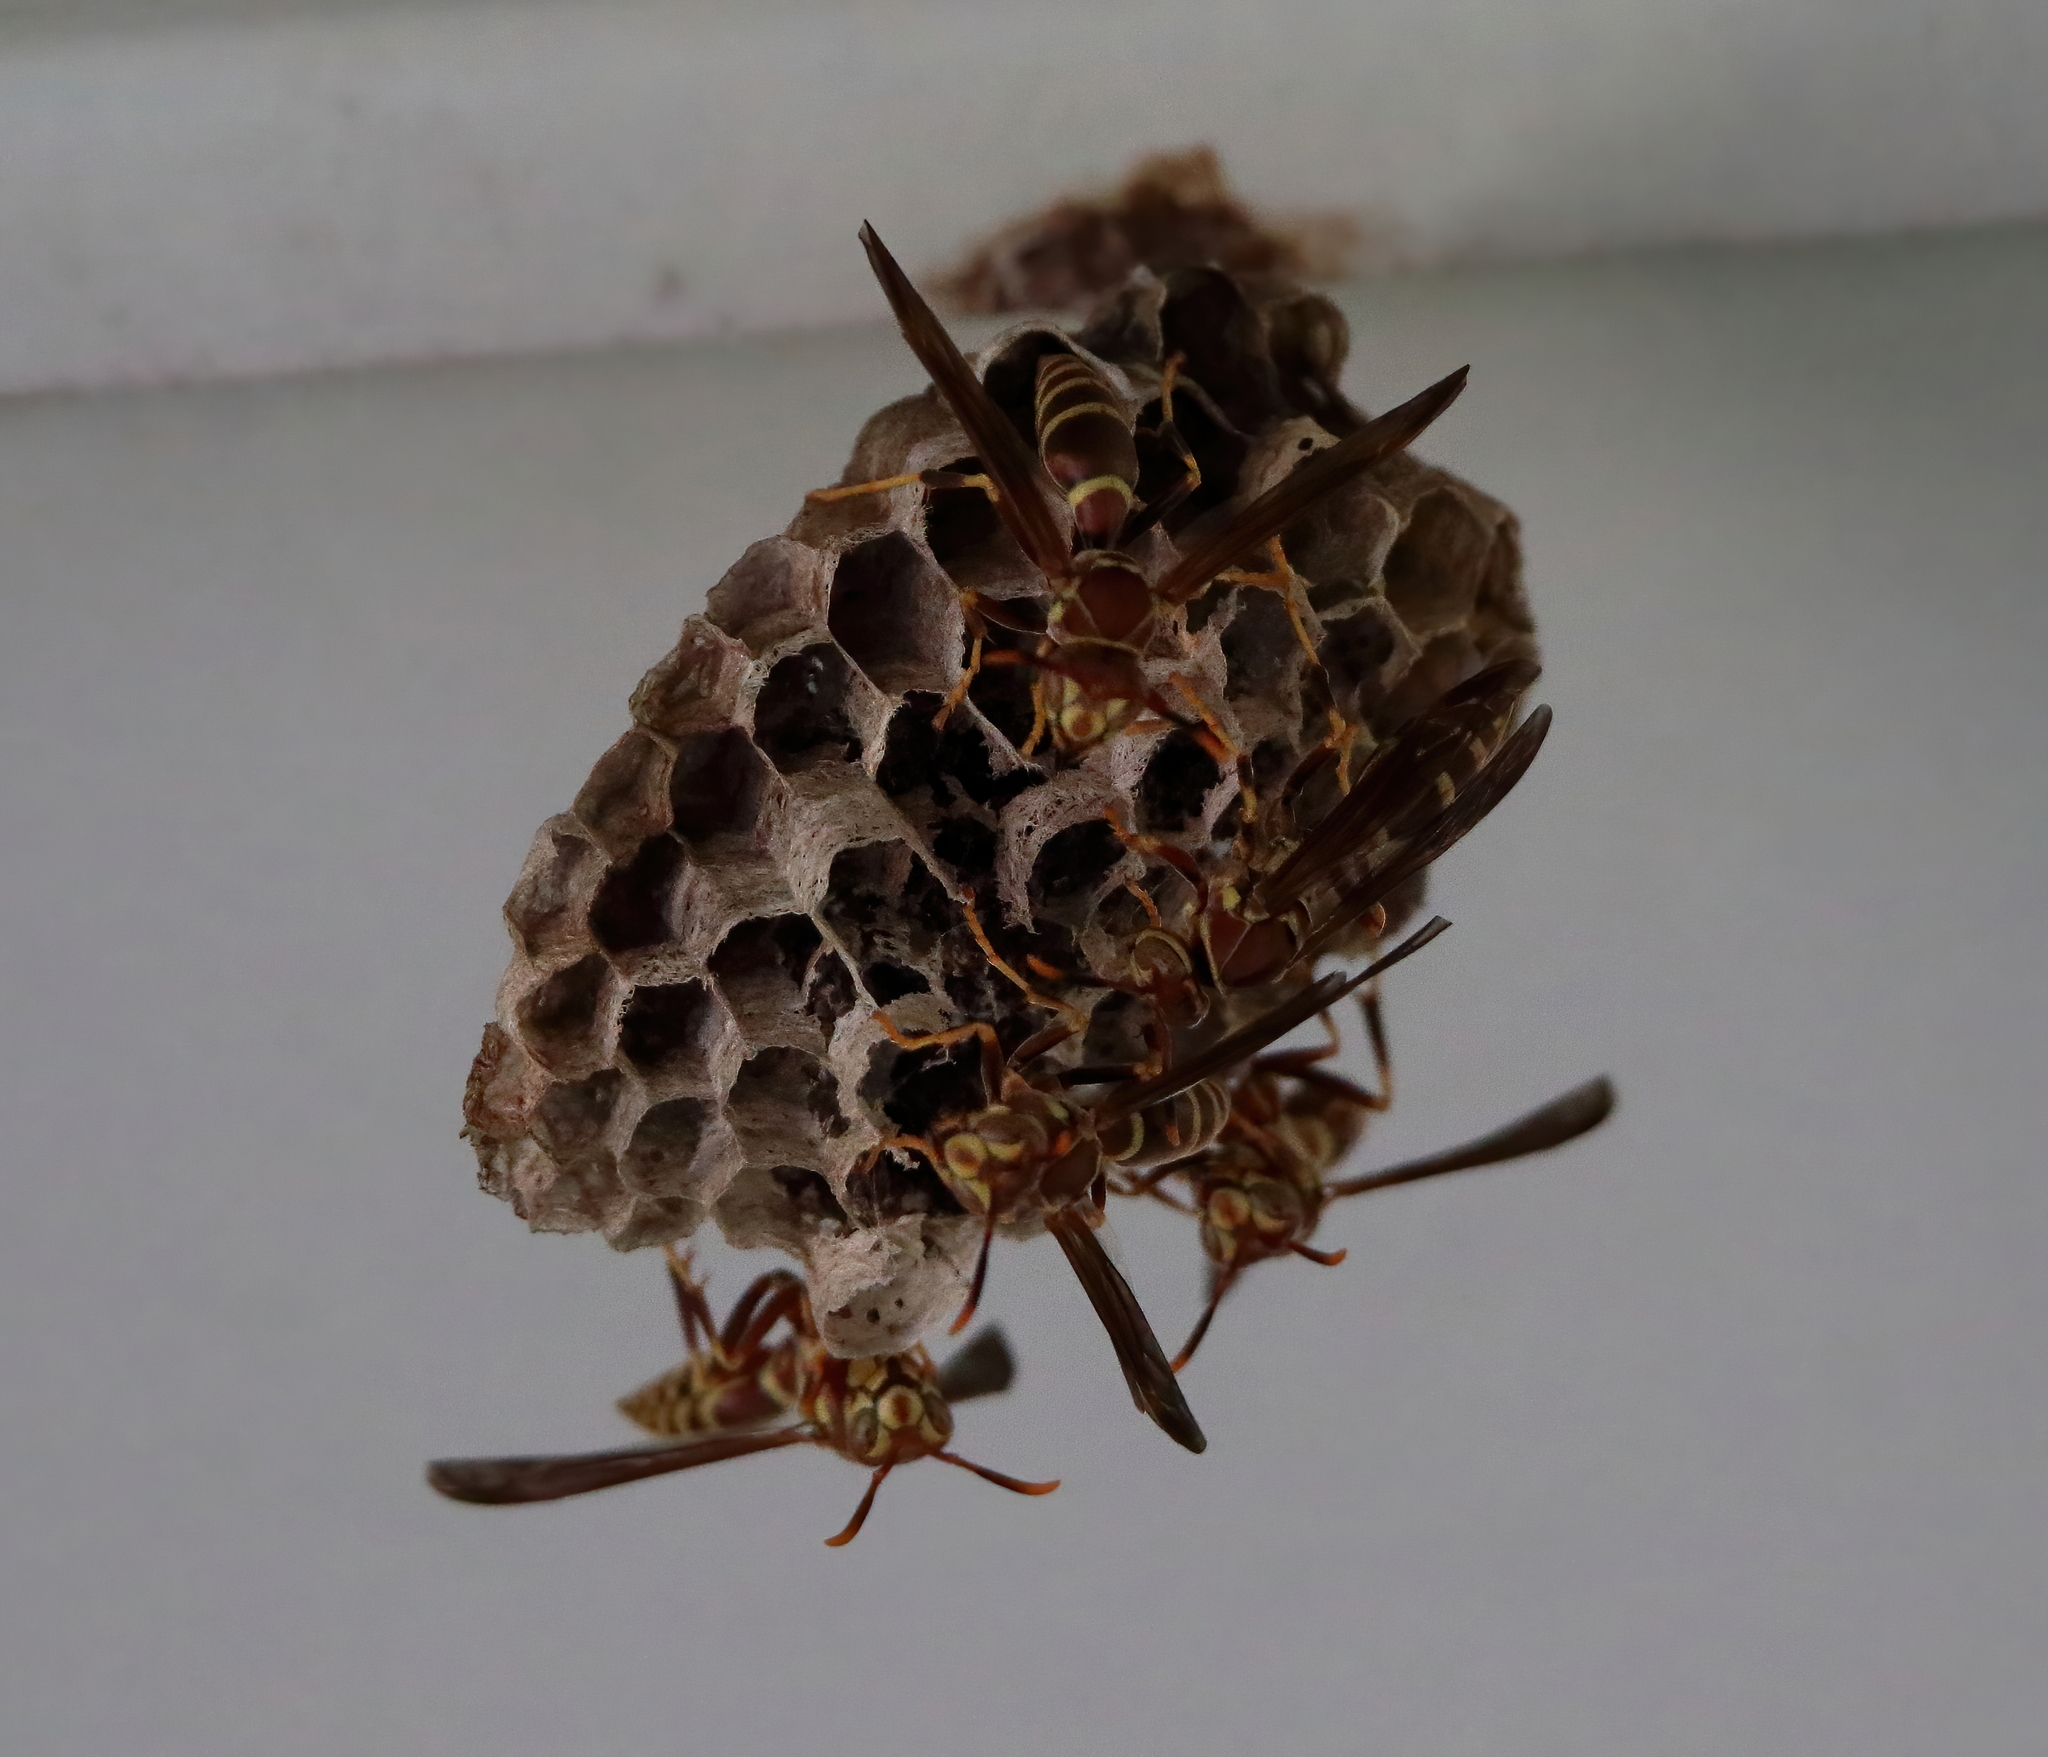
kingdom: Animalia
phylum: Arthropoda
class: Insecta
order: Hymenoptera
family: Eumenidae
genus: Polistes
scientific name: Polistes exclamans
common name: Paper wasp
